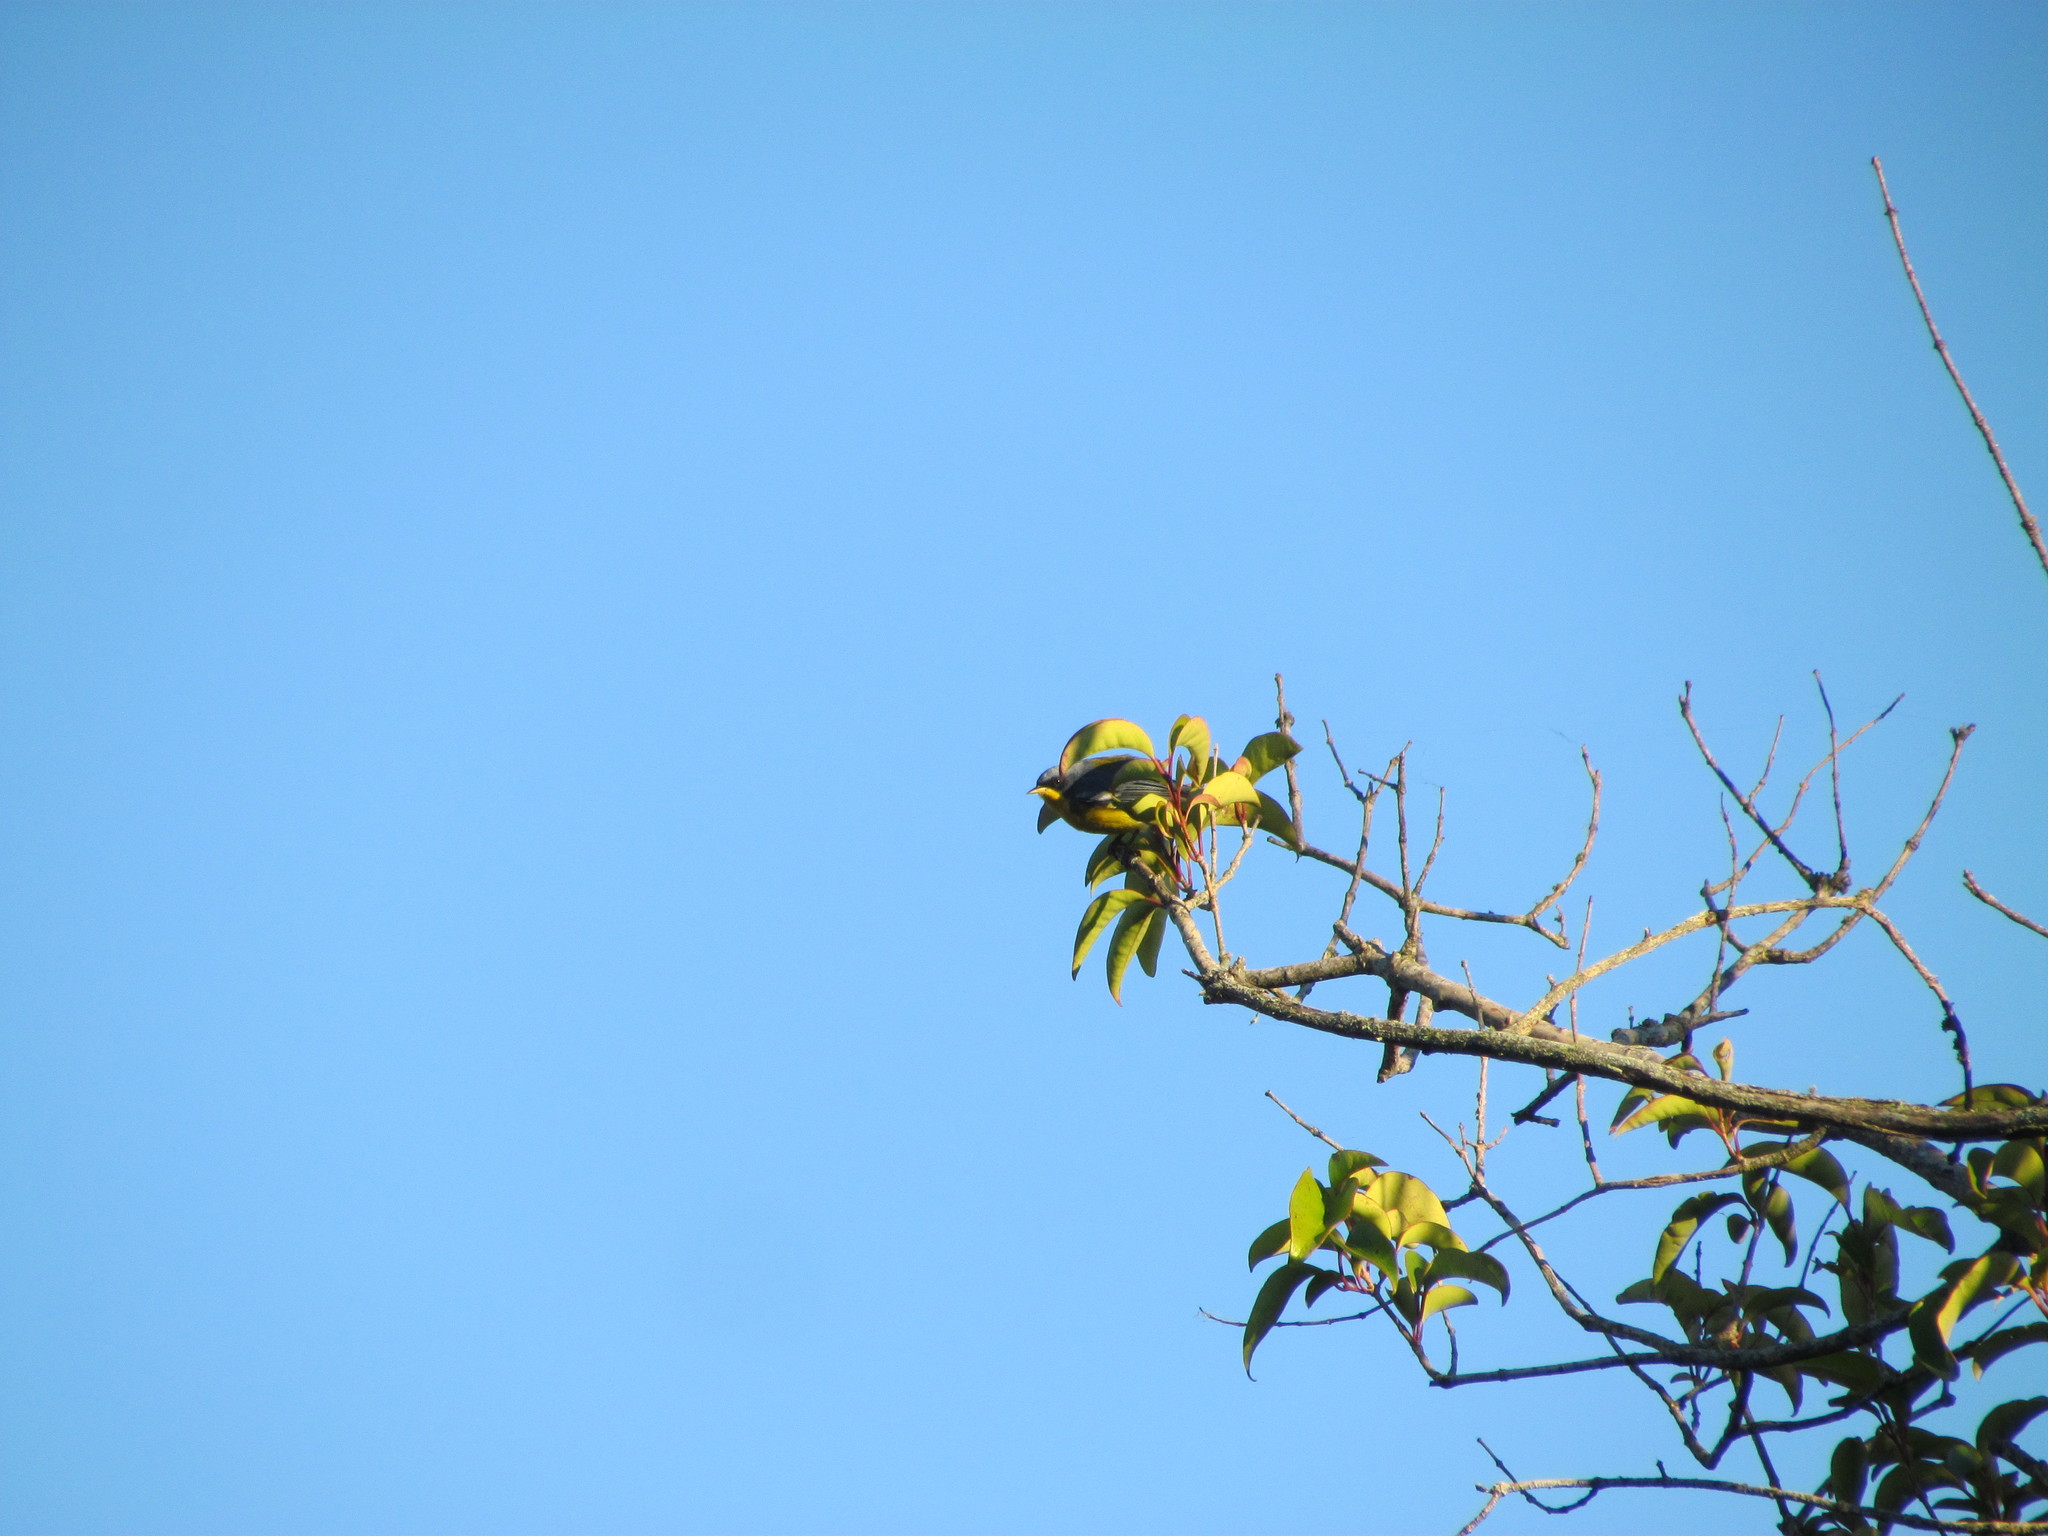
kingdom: Animalia
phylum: Chordata
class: Aves
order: Passeriformes
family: Parulidae
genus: Setophaga
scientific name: Setophaga pitiayumi
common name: Tropical parula
